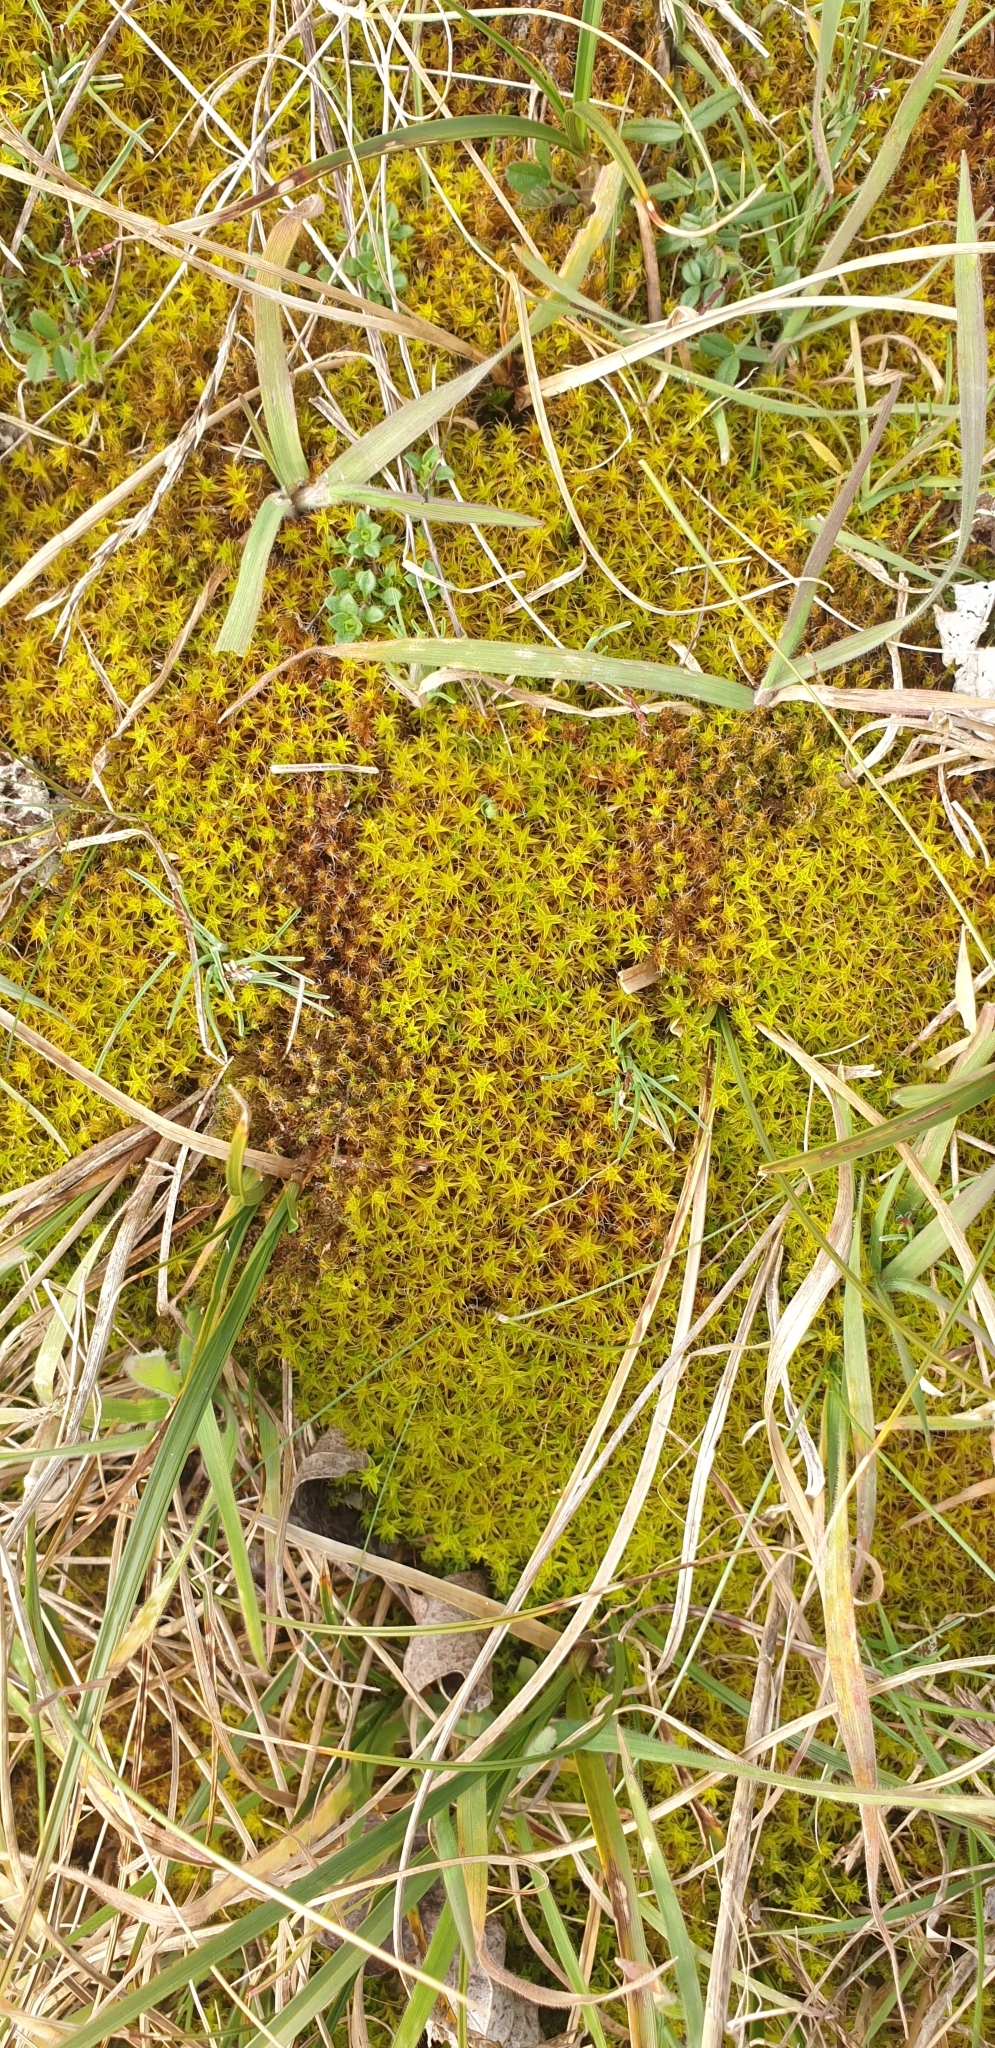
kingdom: Plantae
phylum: Bryophyta
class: Bryopsida
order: Pottiales
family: Pottiaceae
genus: Syntrichia
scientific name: Syntrichia ruralis
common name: Sidewalk screw moss
